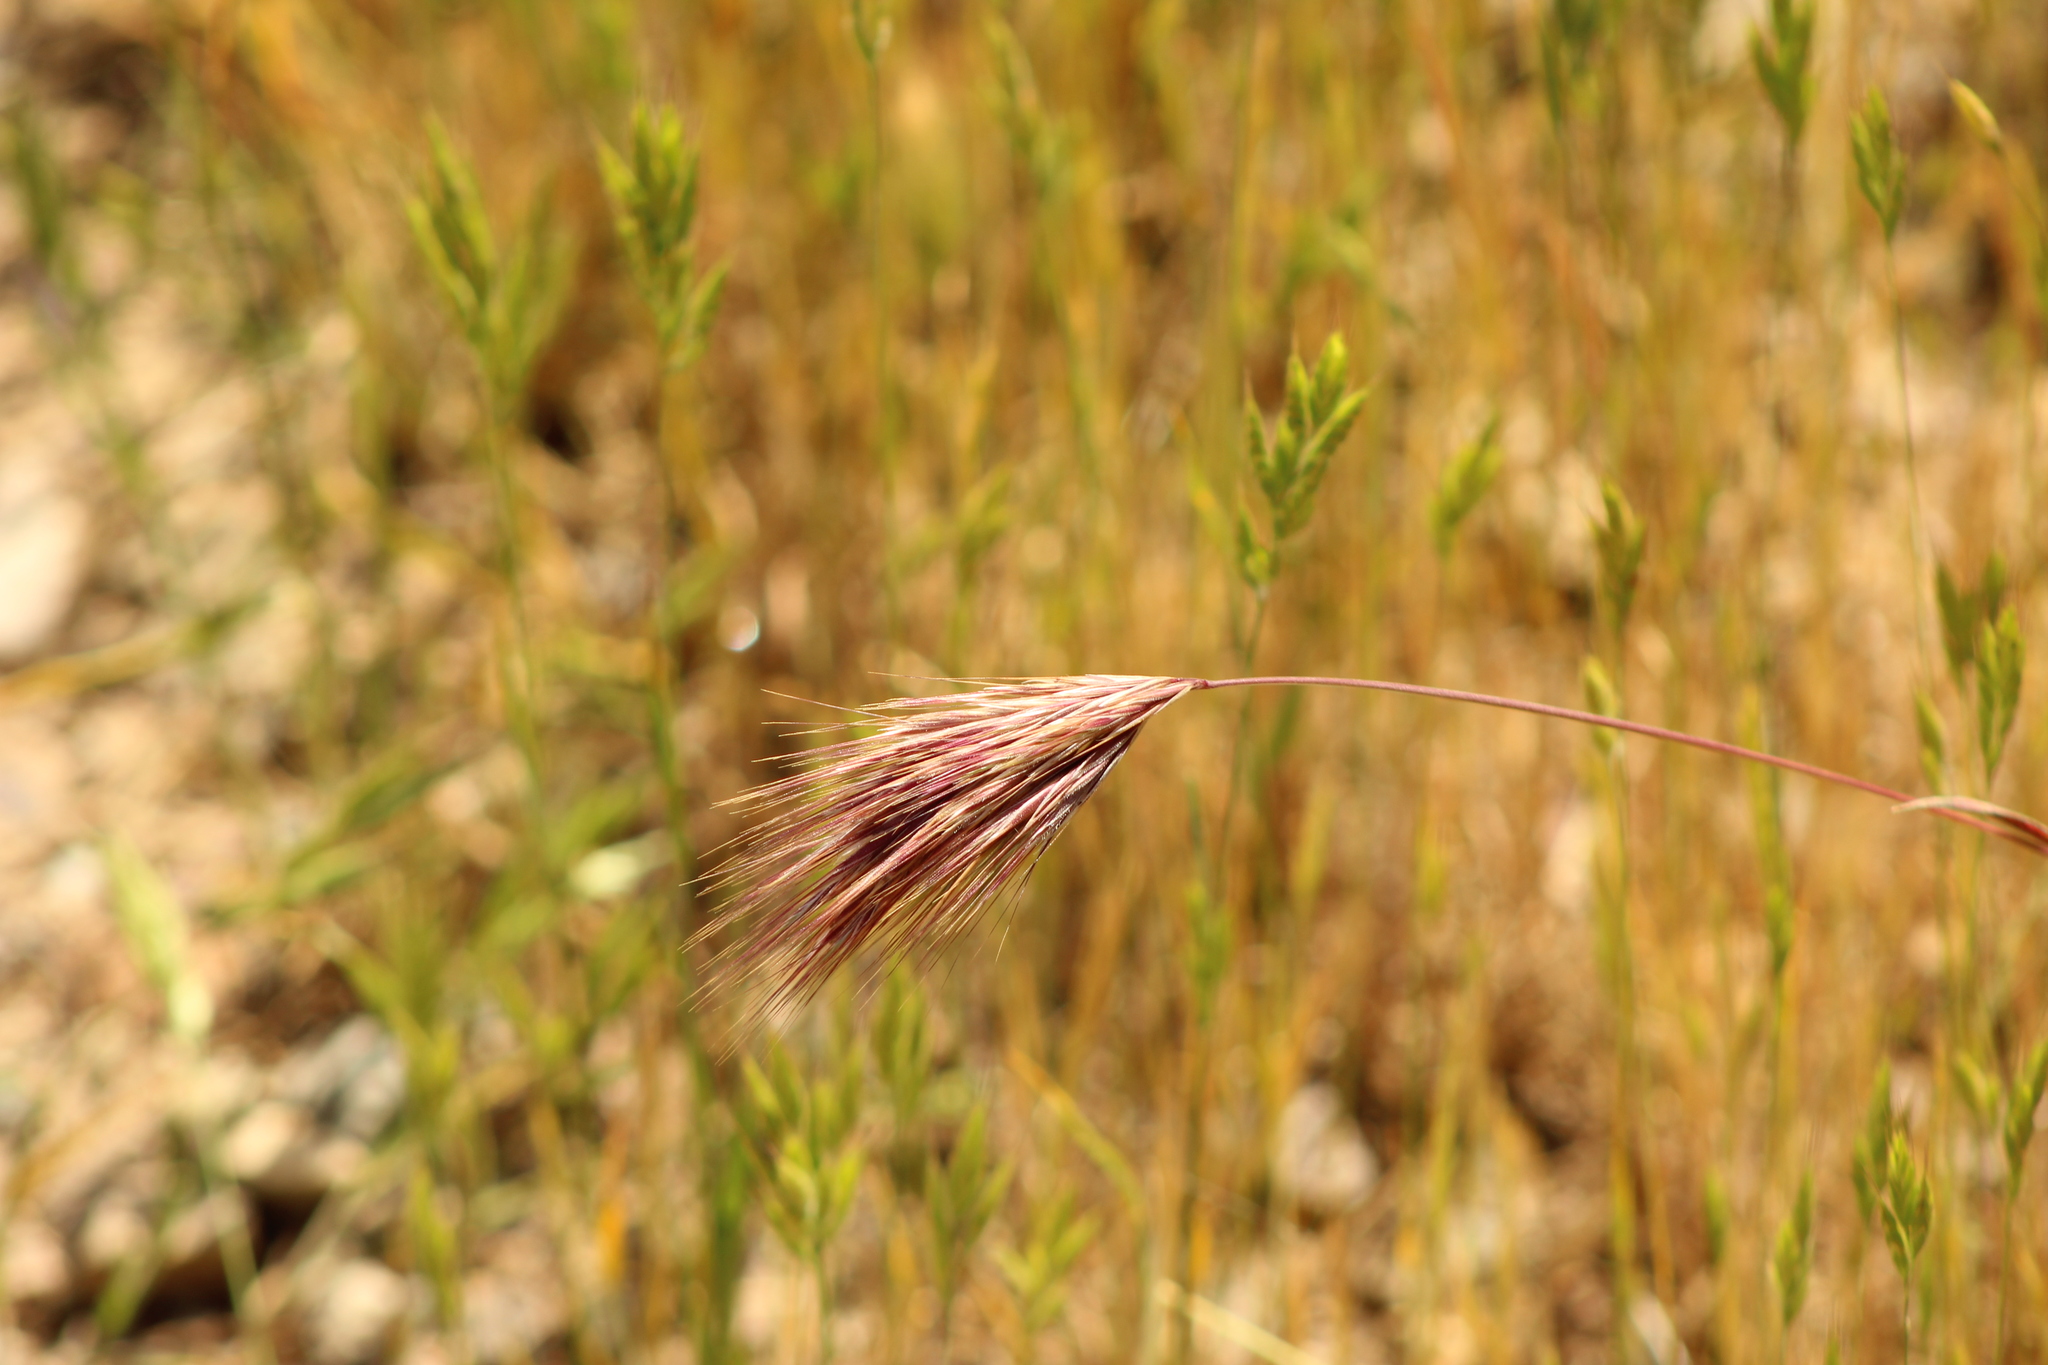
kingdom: Plantae
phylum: Tracheophyta
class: Liliopsida
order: Poales
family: Poaceae
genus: Bromus
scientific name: Bromus rubens
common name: Red brome
